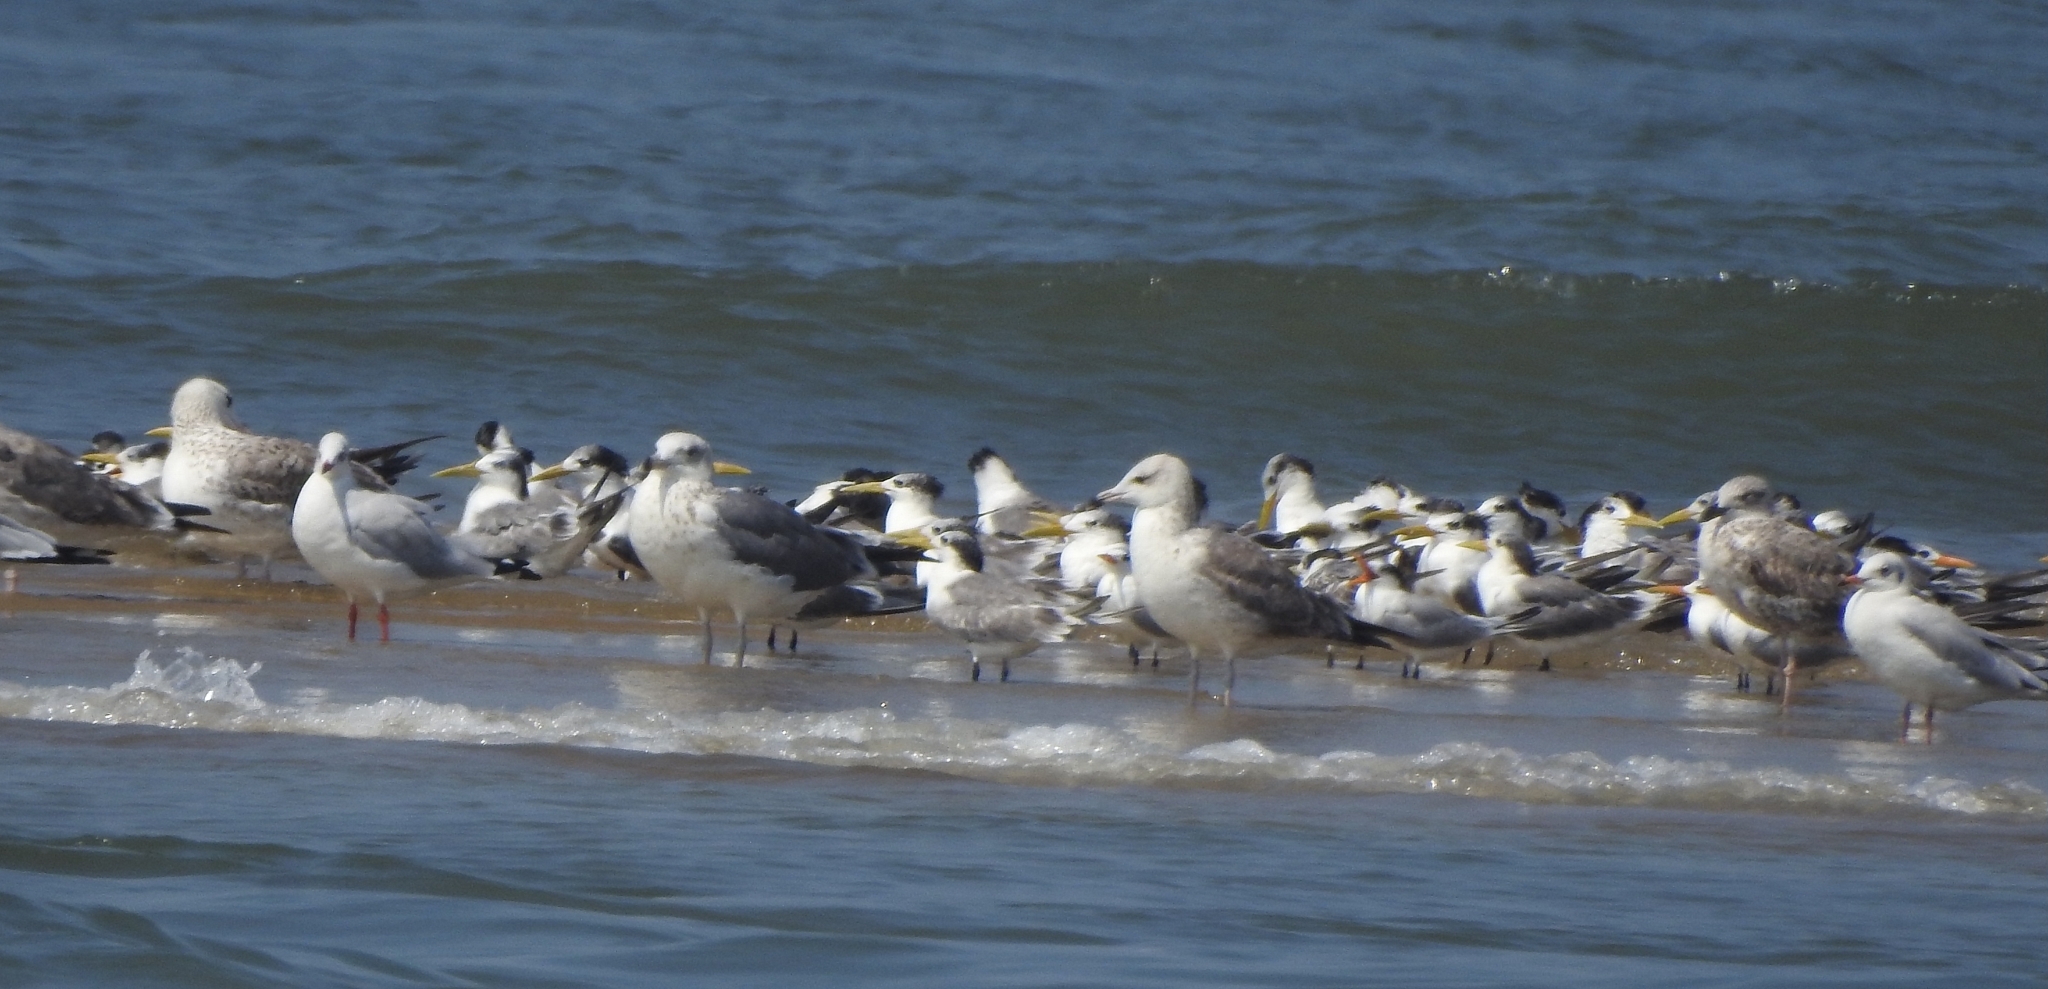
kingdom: Animalia
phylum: Chordata
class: Aves
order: Charadriiformes
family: Laridae
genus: Thalasseus
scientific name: Thalasseus bergii
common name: Greater crested tern
